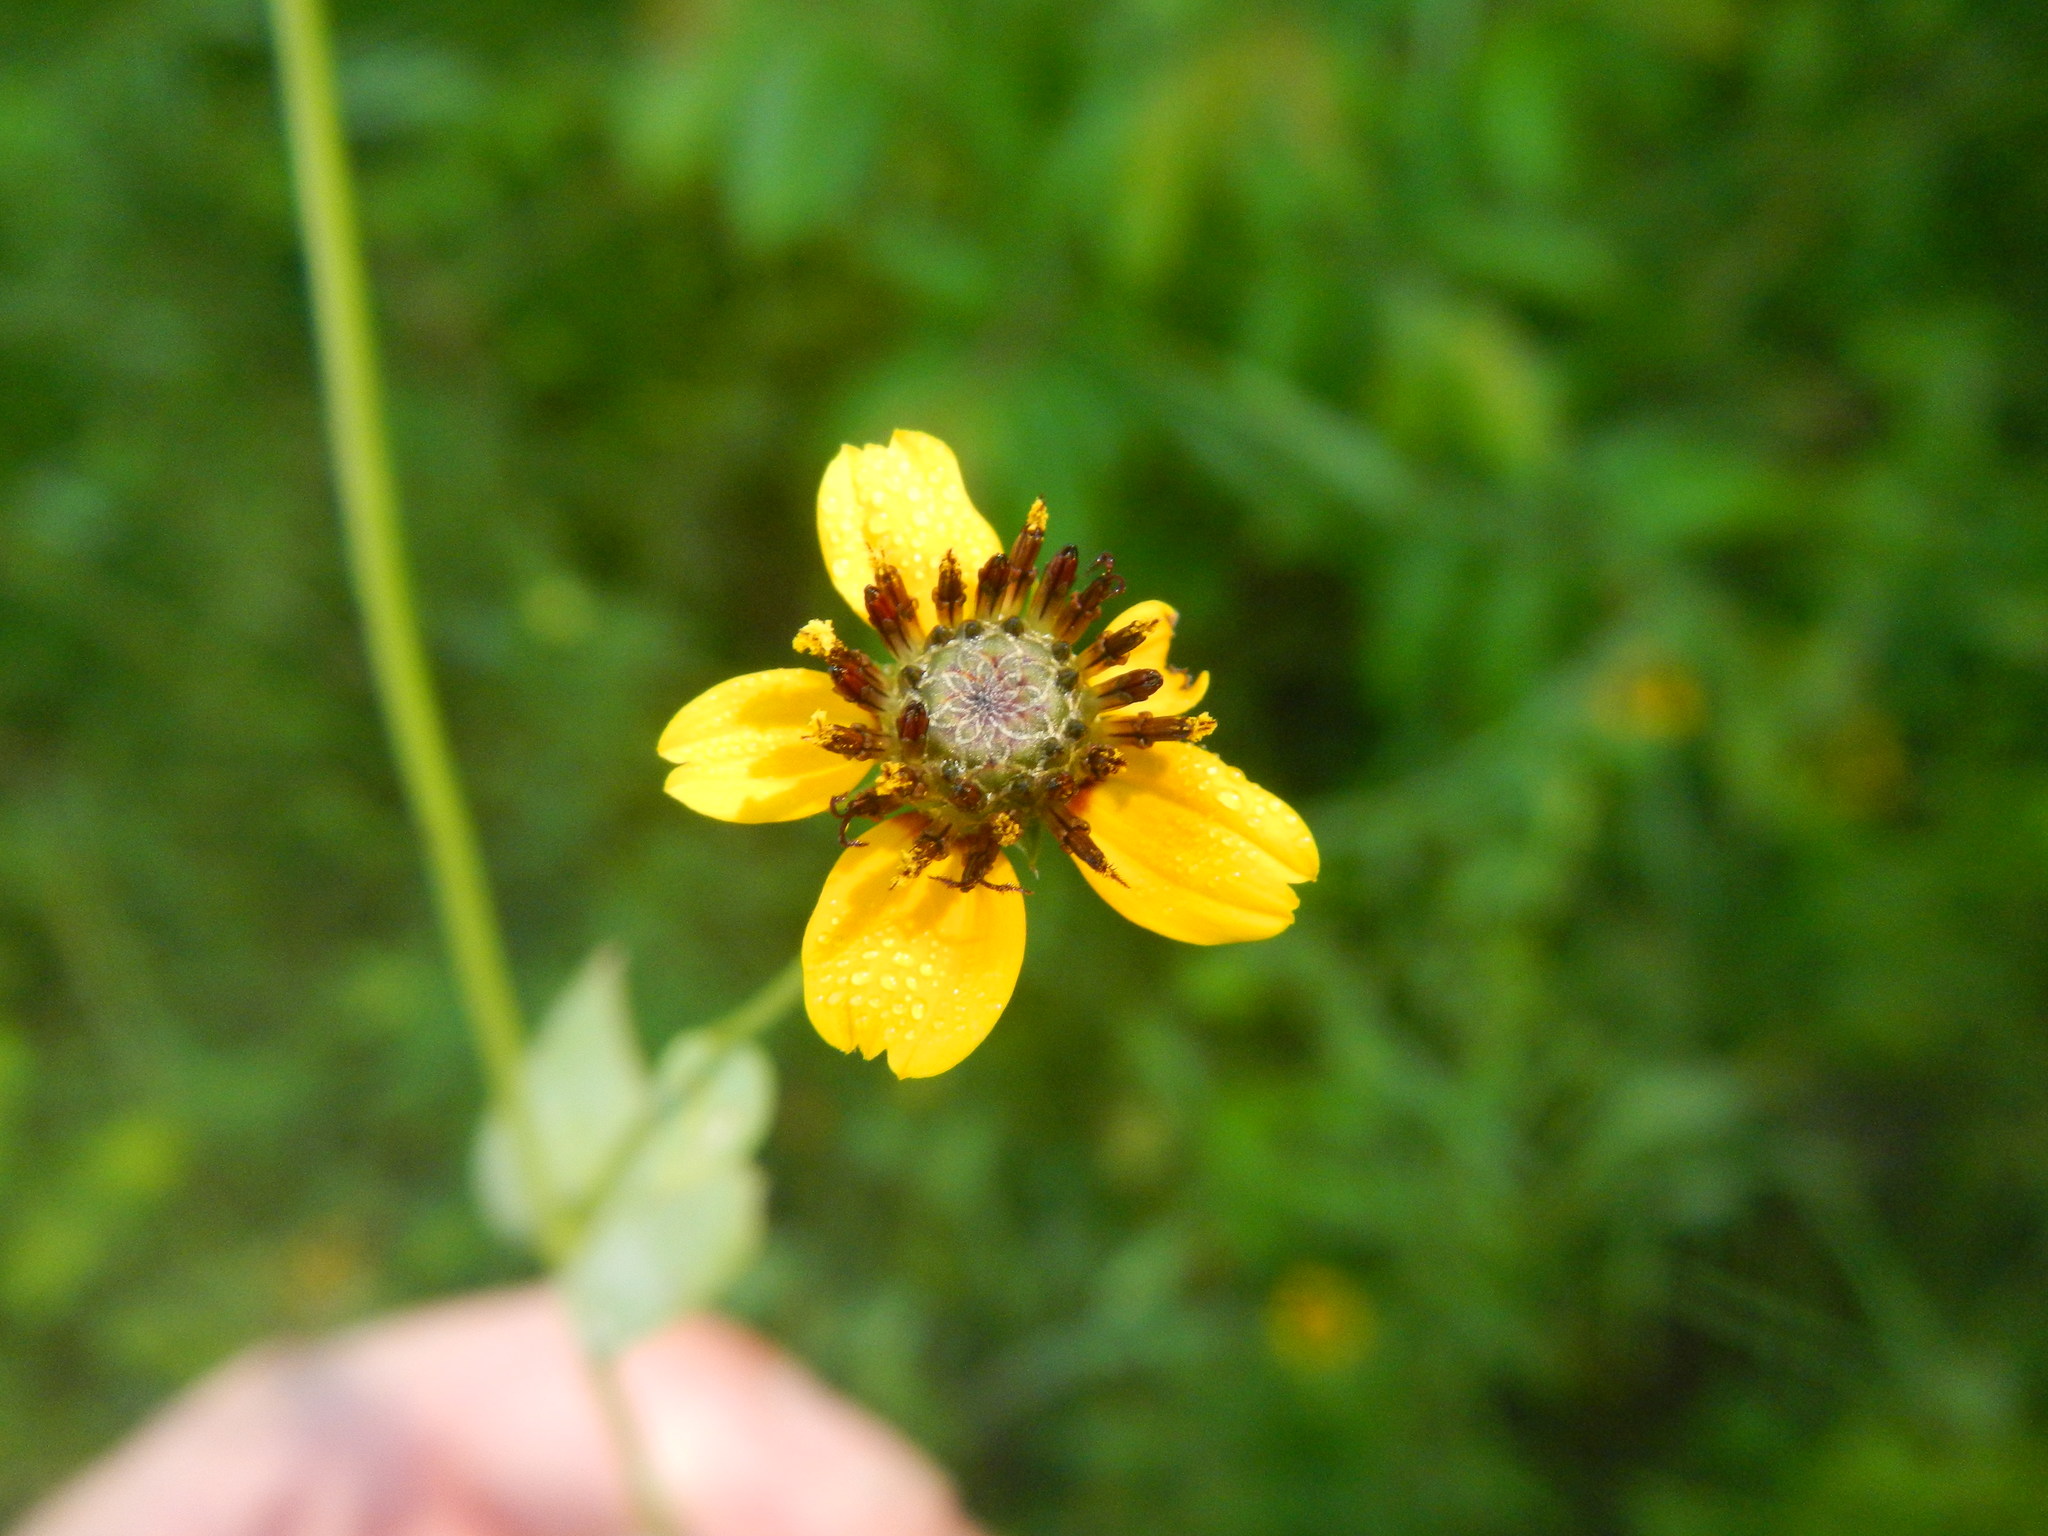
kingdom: Plantae
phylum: Tracheophyta
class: Magnoliopsida
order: Asterales
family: Asteraceae
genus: Rudbeckia
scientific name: Rudbeckia amplexicaulis
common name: Clasping-leaf coneflower
